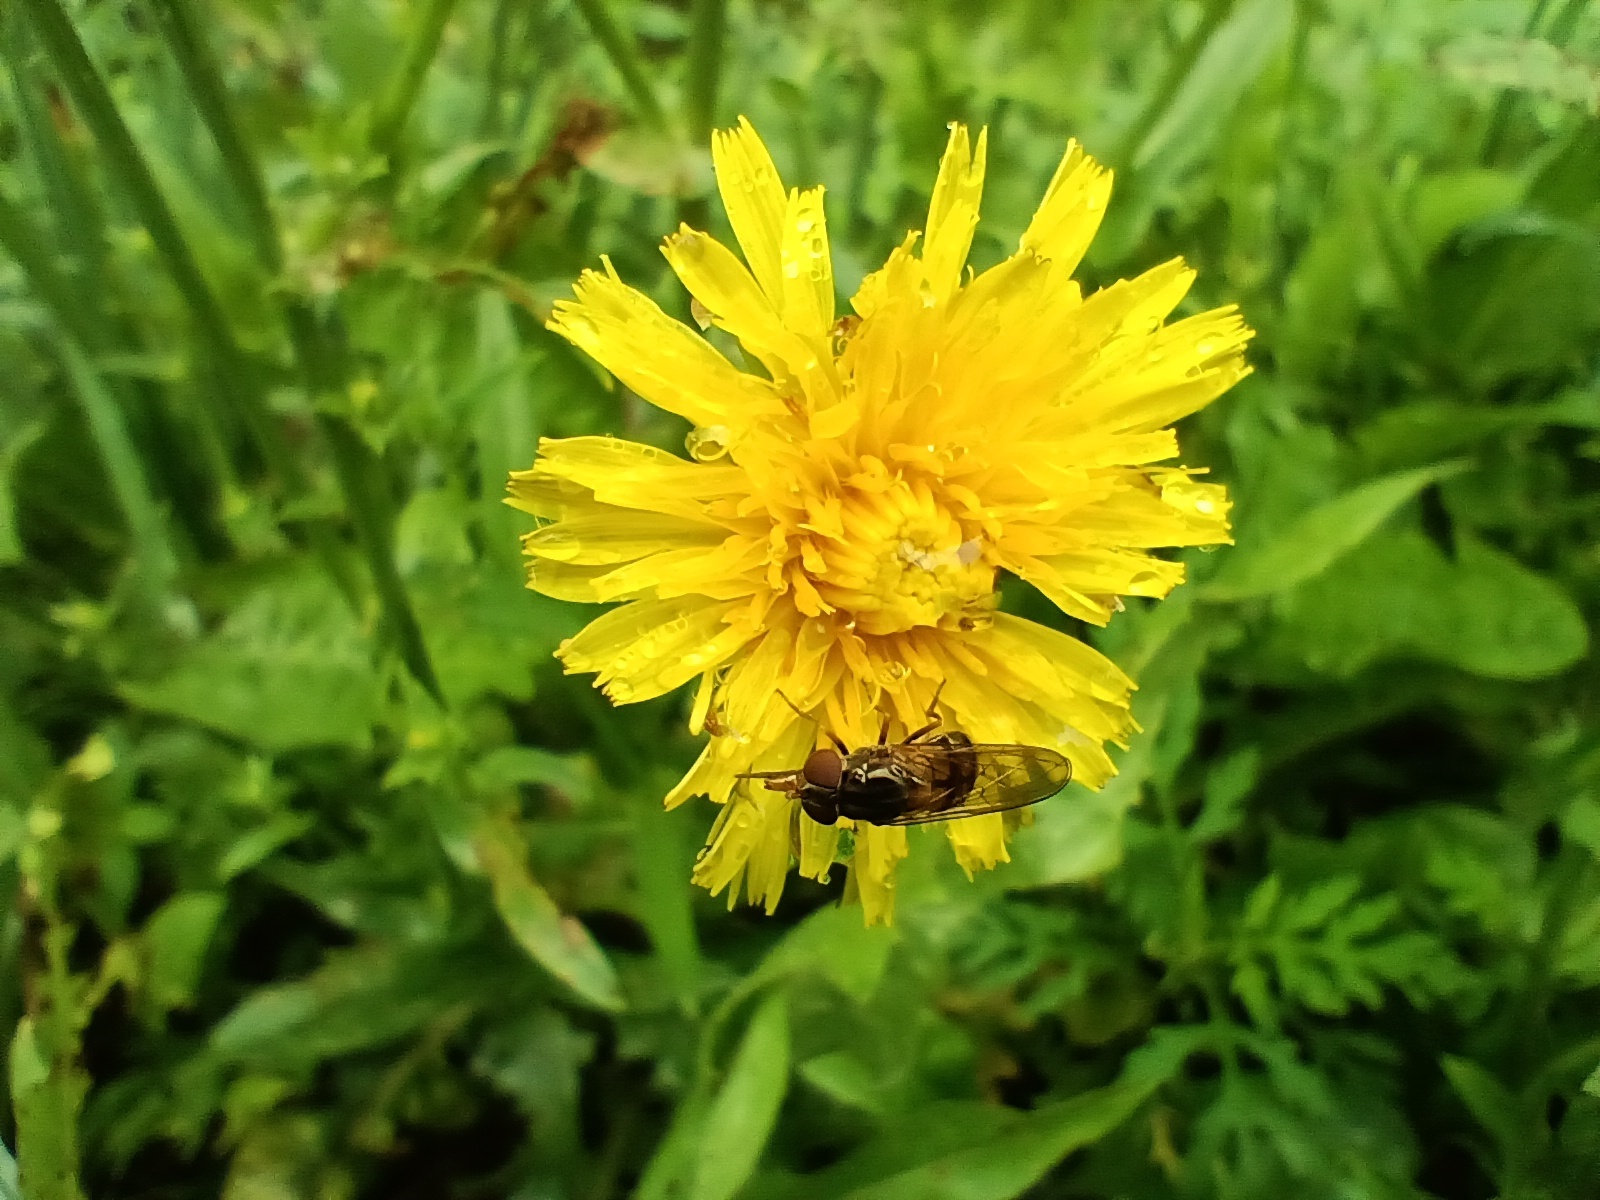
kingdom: Animalia
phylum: Arthropoda
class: Insecta
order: Diptera
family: Syrphidae
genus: Rhingia
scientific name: Rhingia nasica
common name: American snout fly
